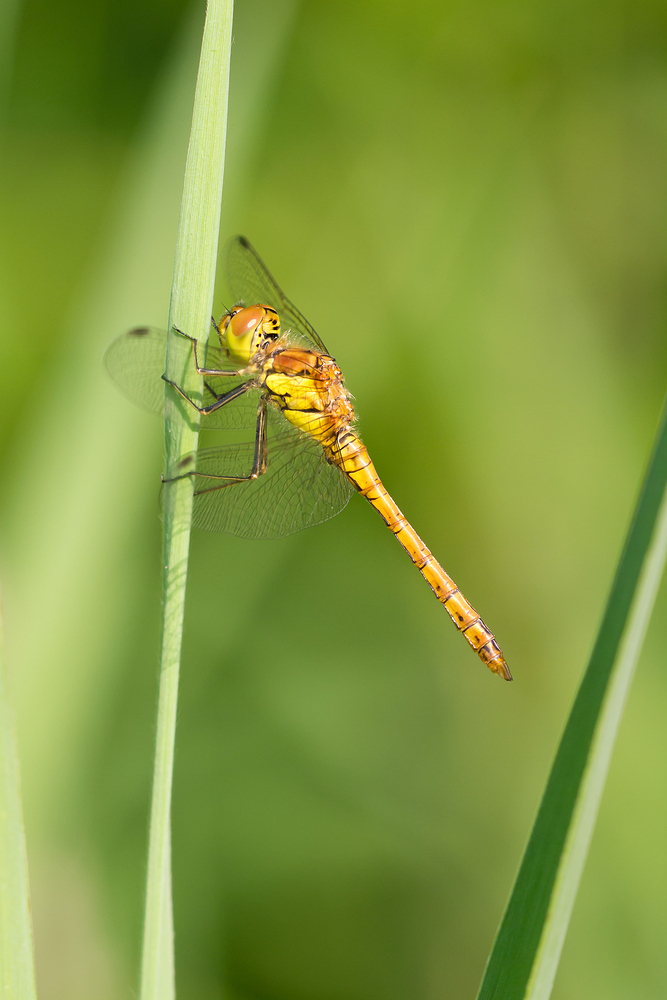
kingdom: Animalia
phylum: Arthropoda
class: Insecta
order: Odonata
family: Libellulidae
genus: Sympetrum
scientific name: Sympetrum striolatum
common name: Common darter
